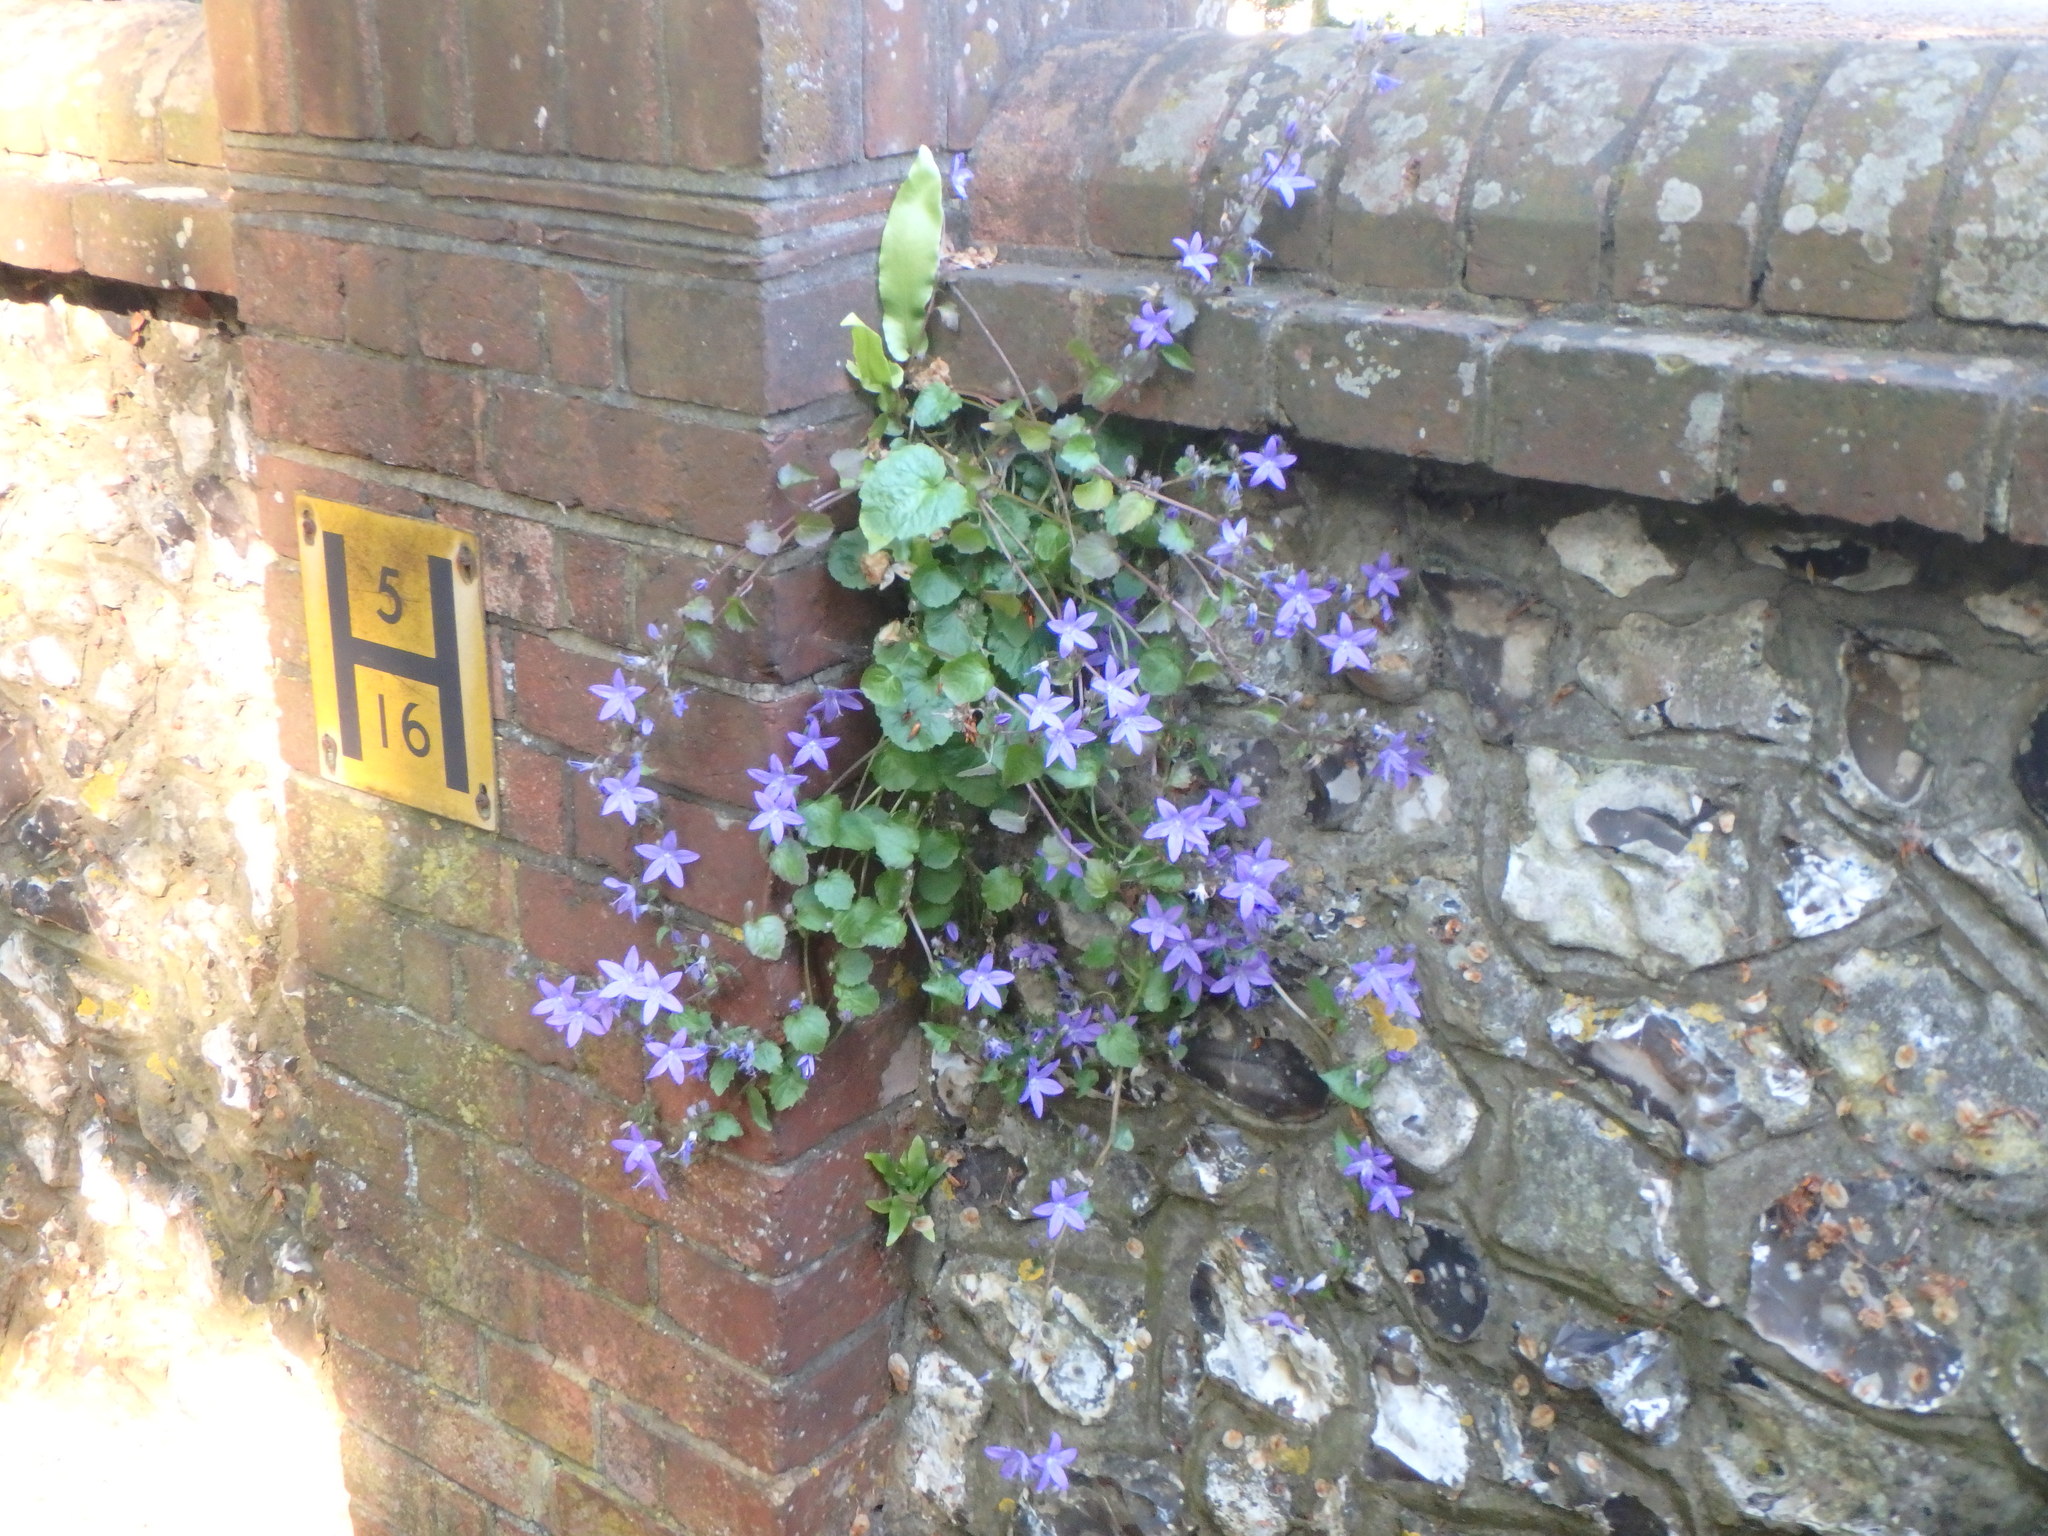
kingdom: Plantae
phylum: Tracheophyta
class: Magnoliopsida
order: Asterales
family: Campanulaceae
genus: Campanula
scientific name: Campanula poscharskyana
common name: Trailing bellflower
